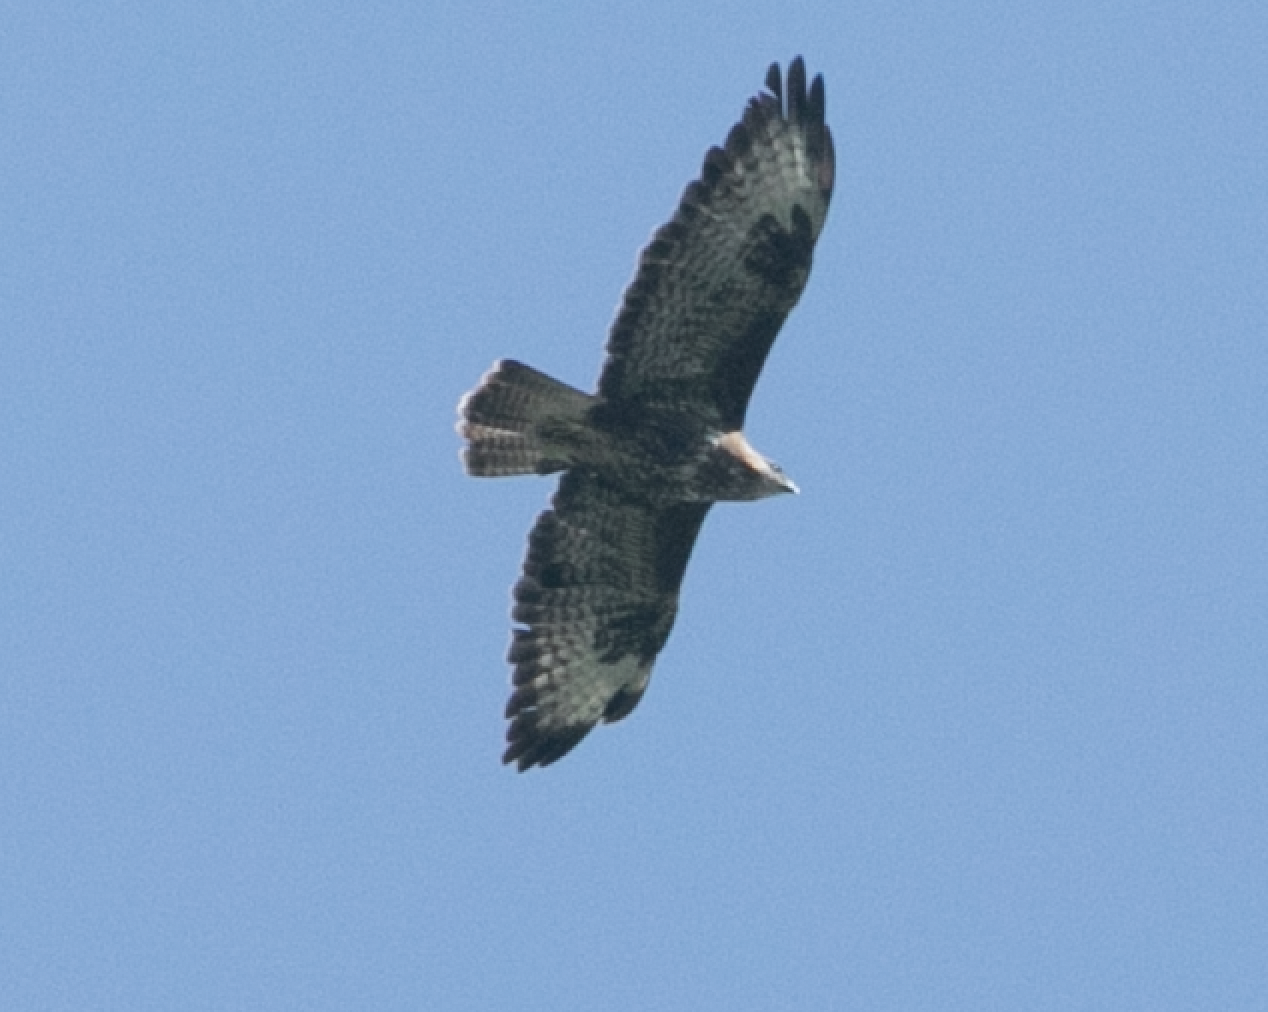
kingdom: Animalia
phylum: Chordata
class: Aves
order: Accipitriformes
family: Accipitridae
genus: Buteo
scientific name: Buteo buteo
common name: Common buzzard
